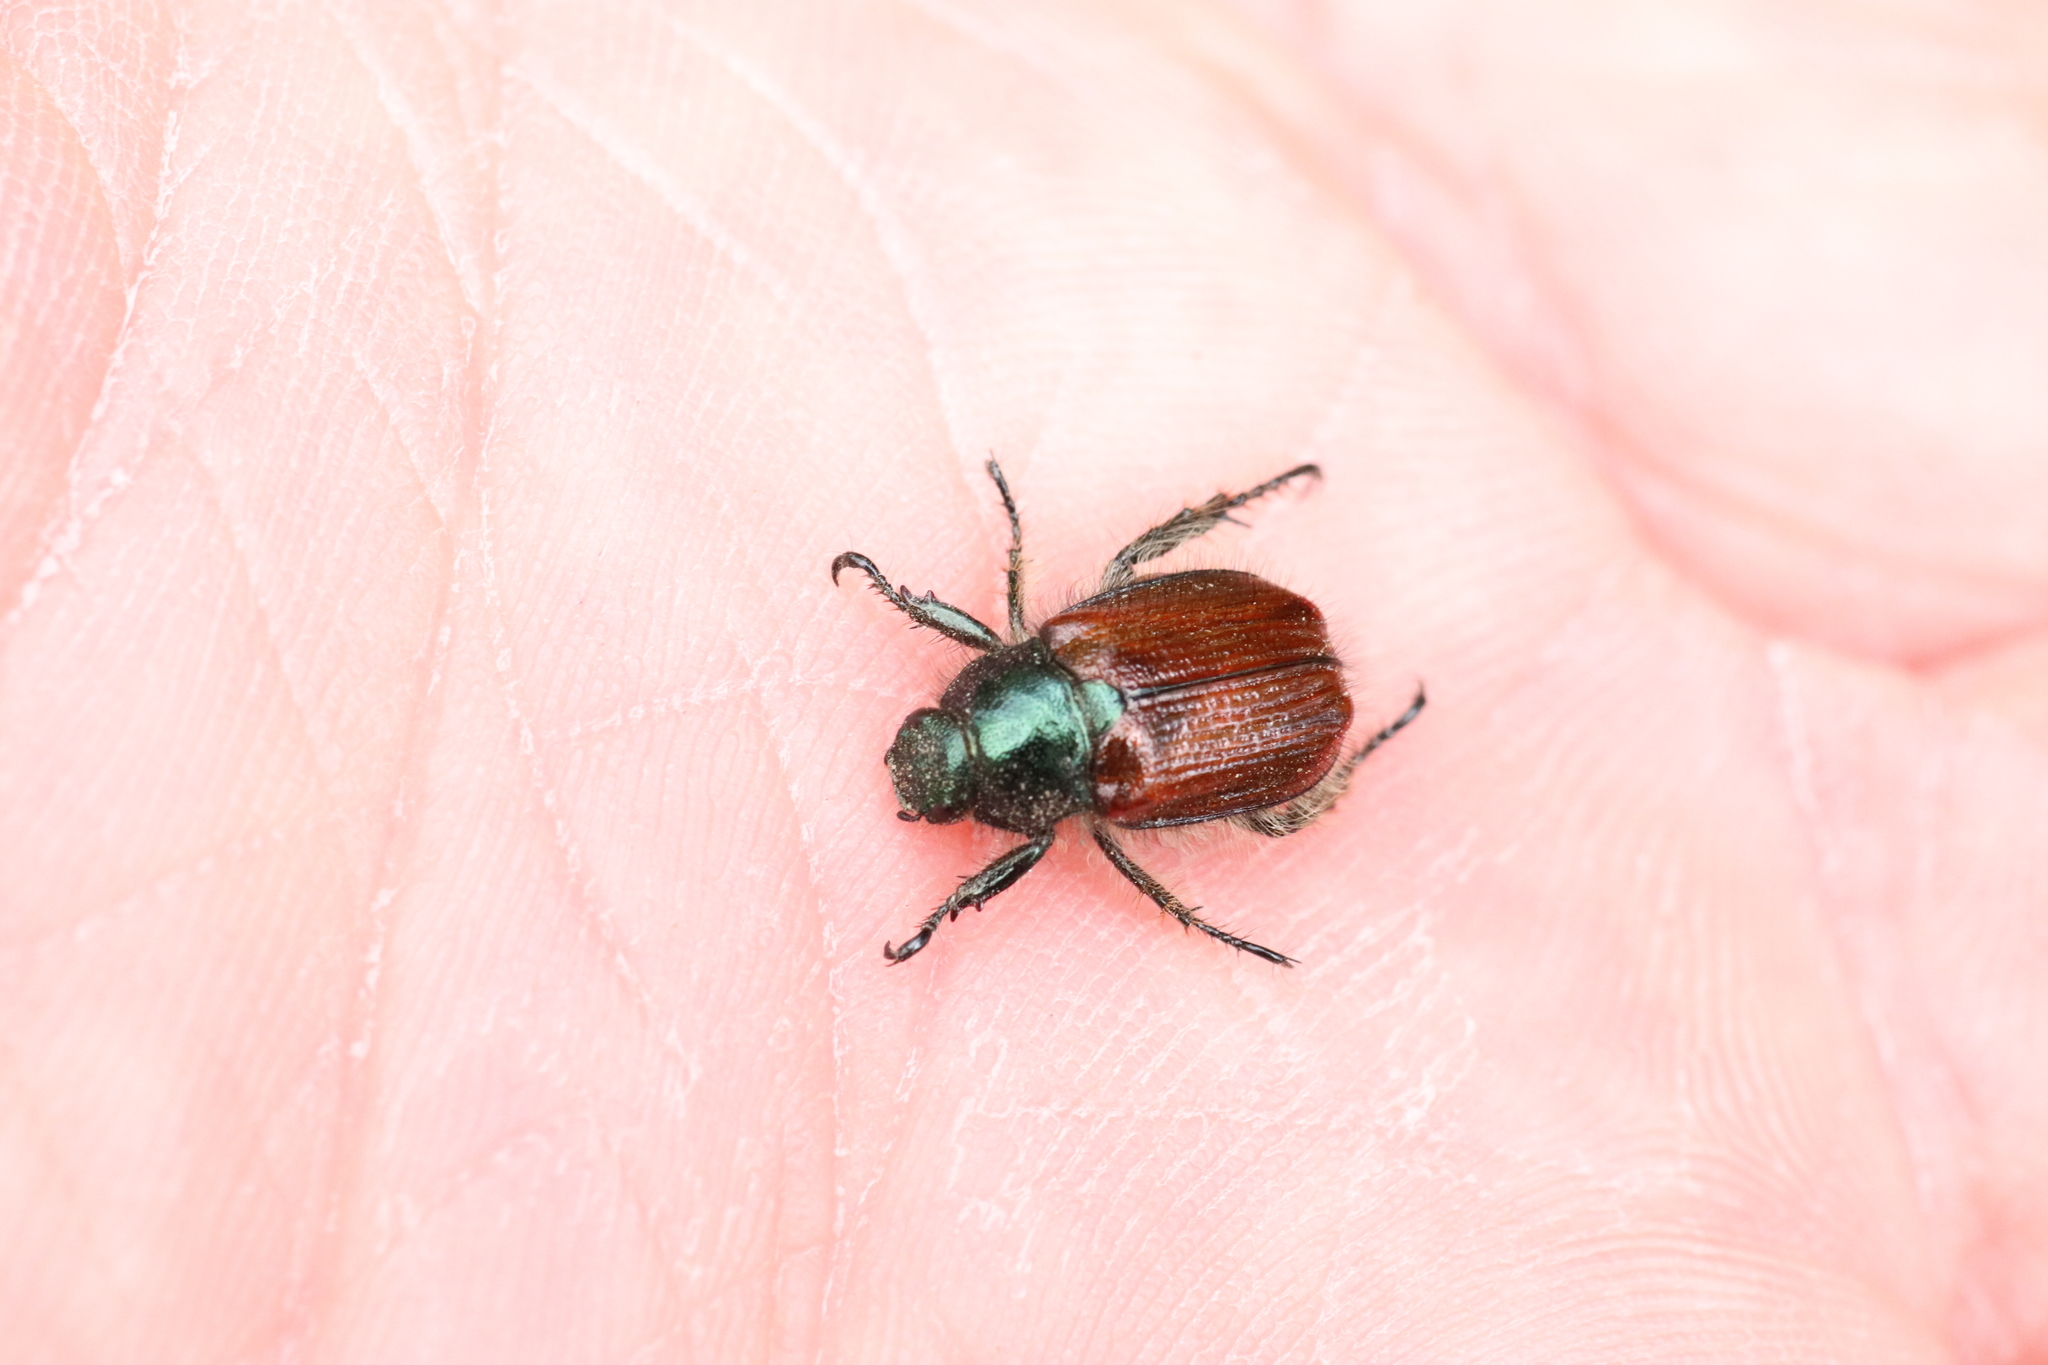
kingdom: Animalia
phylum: Arthropoda
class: Insecta
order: Coleoptera
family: Scarabaeidae
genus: Phyllopertha
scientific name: Phyllopertha horticola
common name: Garden chafer
